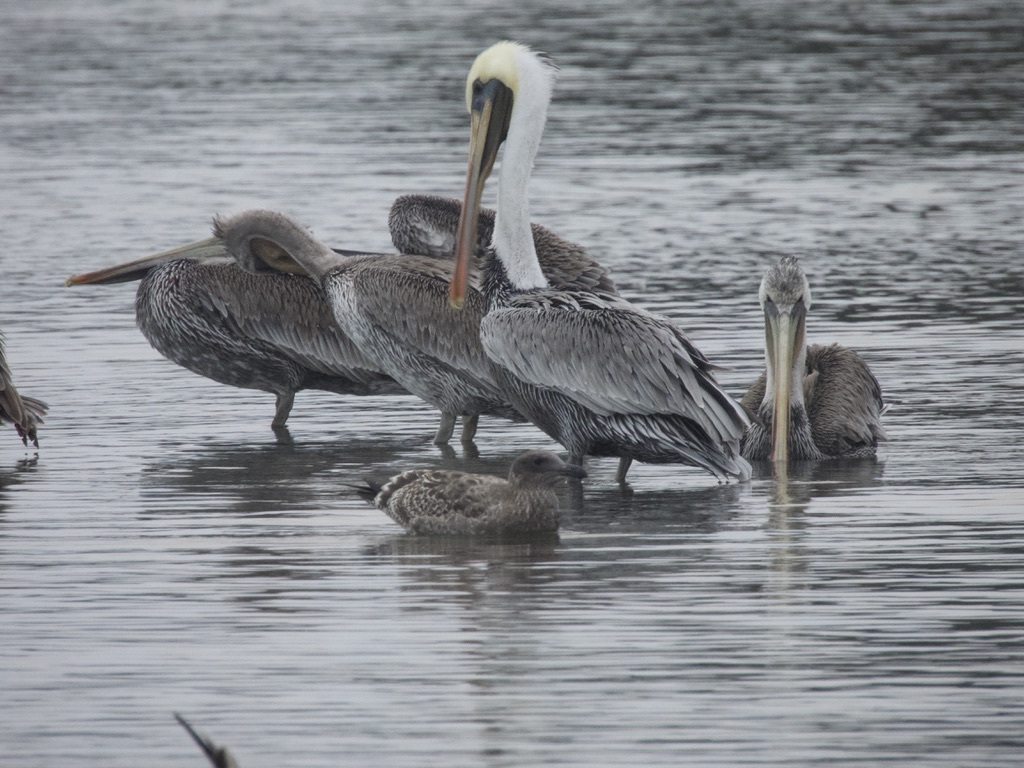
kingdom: Animalia
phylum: Chordata
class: Aves
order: Pelecaniformes
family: Pelecanidae
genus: Pelecanus
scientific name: Pelecanus occidentalis
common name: Brown pelican
